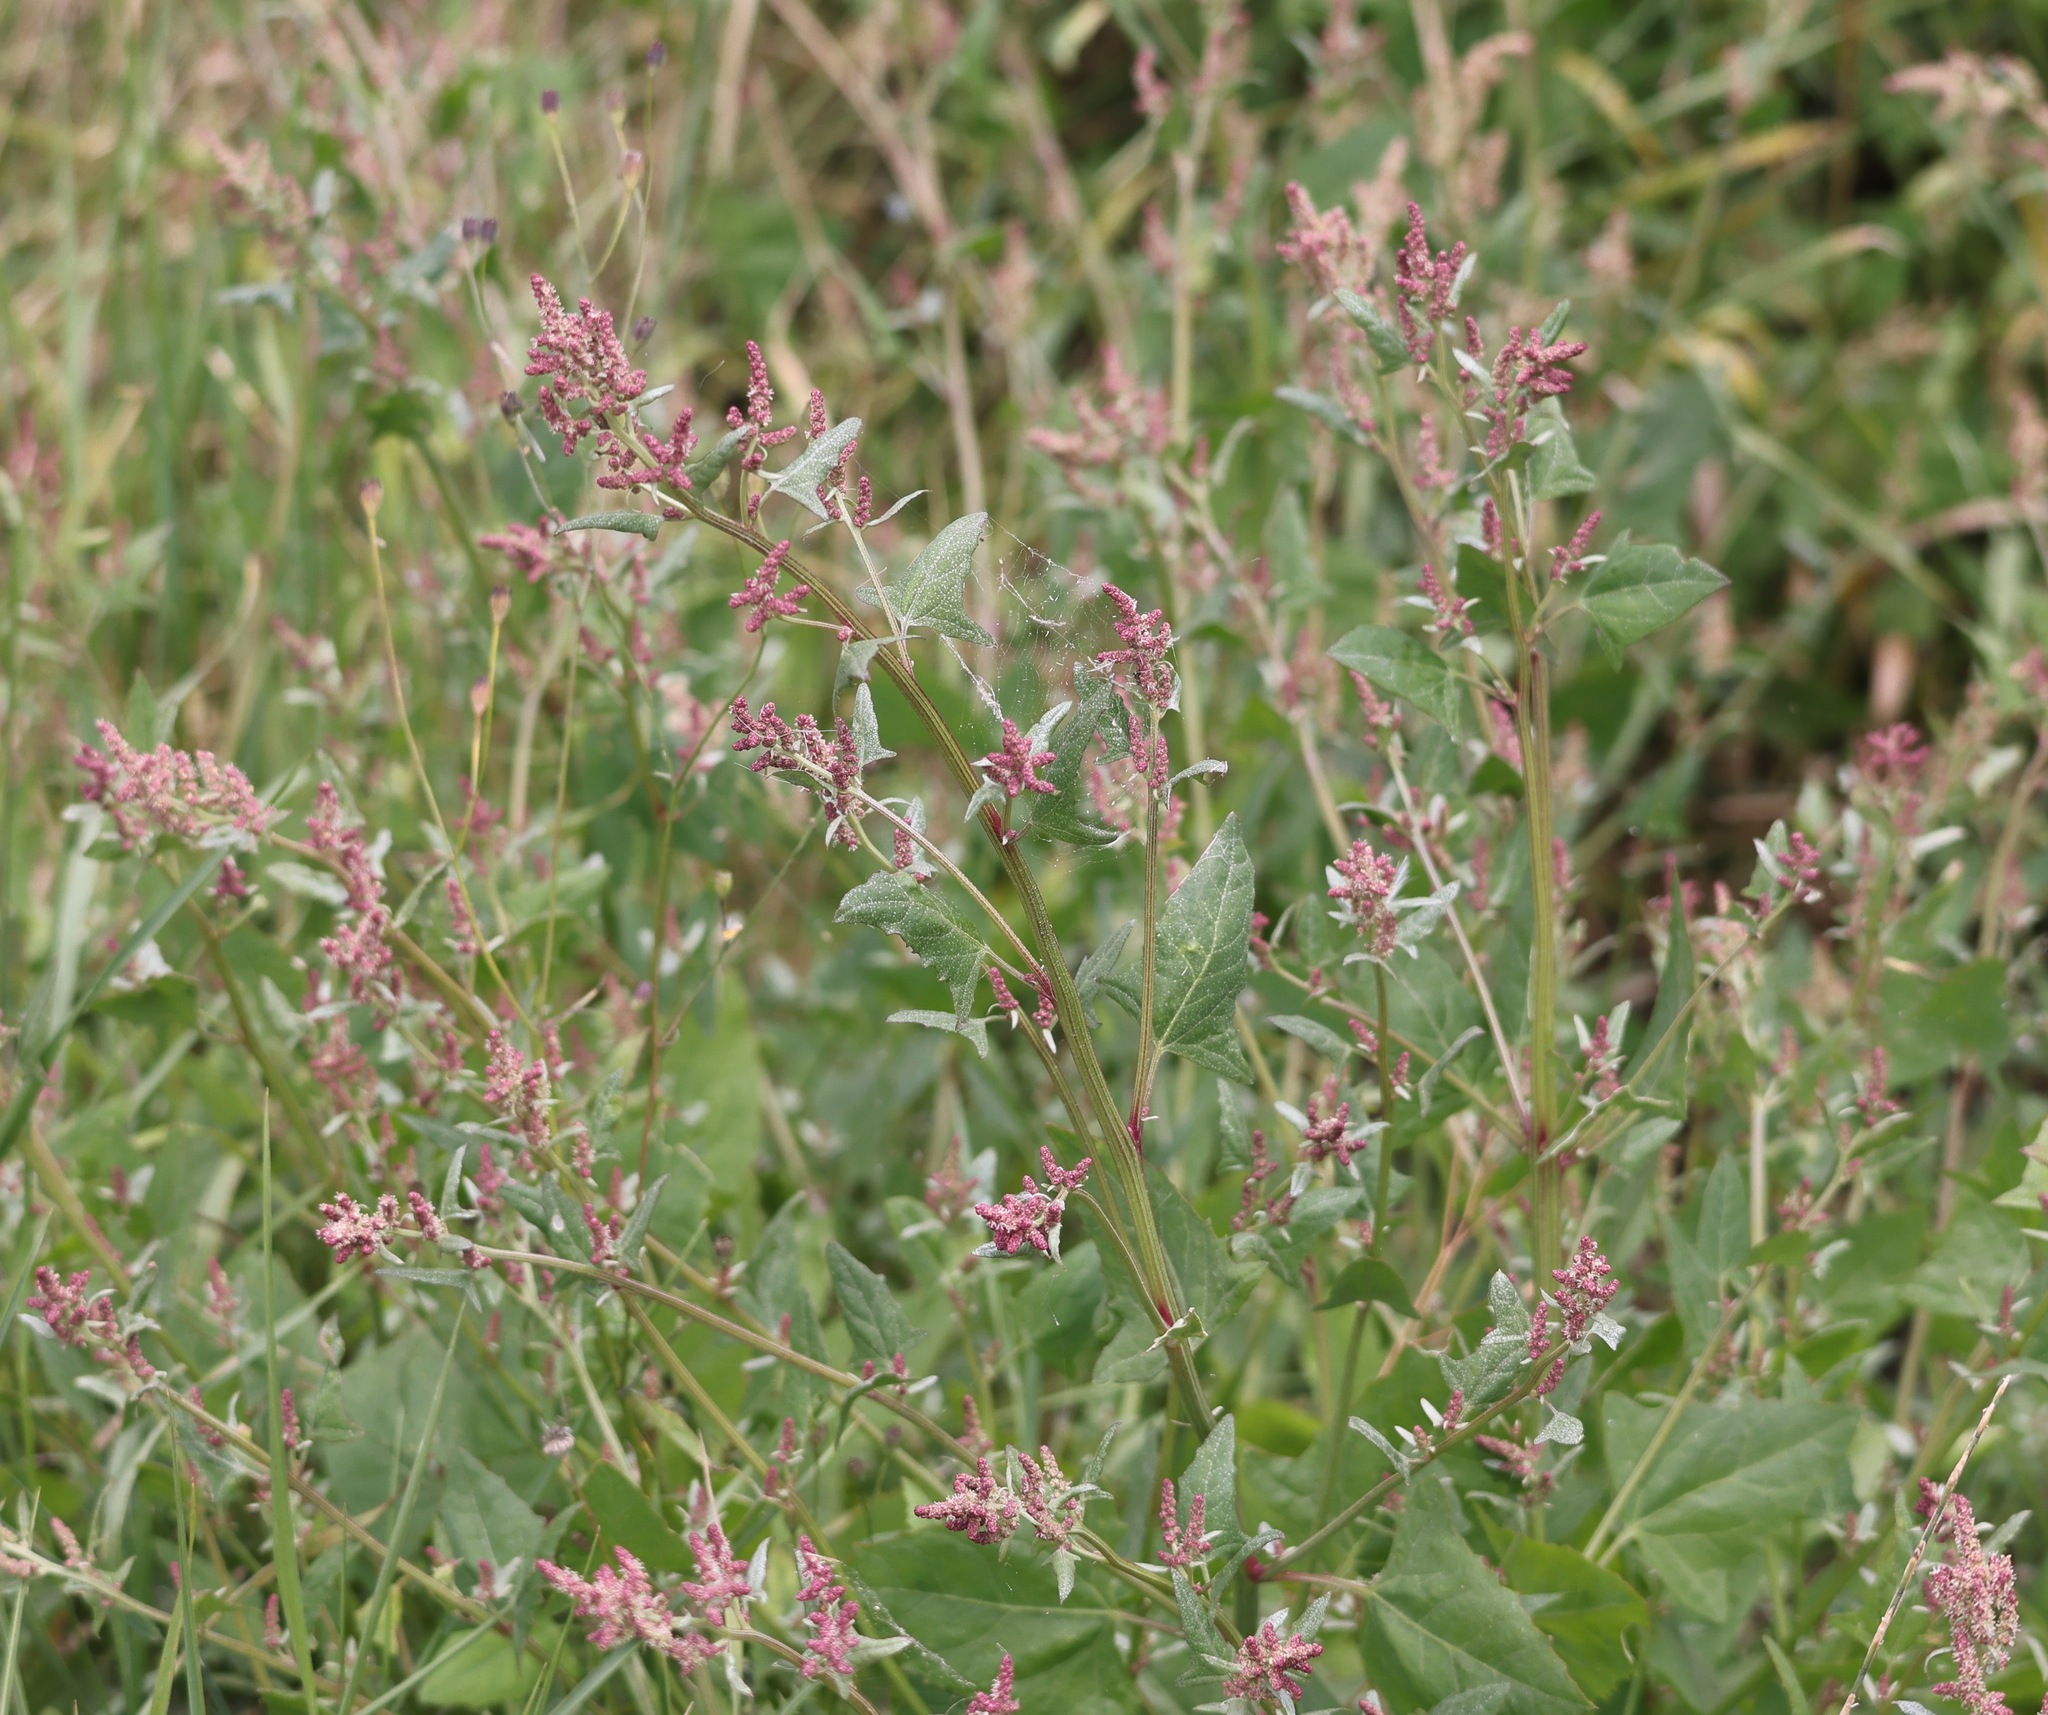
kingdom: Plantae
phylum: Tracheophyta
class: Magnoliopsida
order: Caryophyllales
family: Amaranthaceae
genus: Atriplex
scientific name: Atriplex prostrata
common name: Spear-leaved orache
